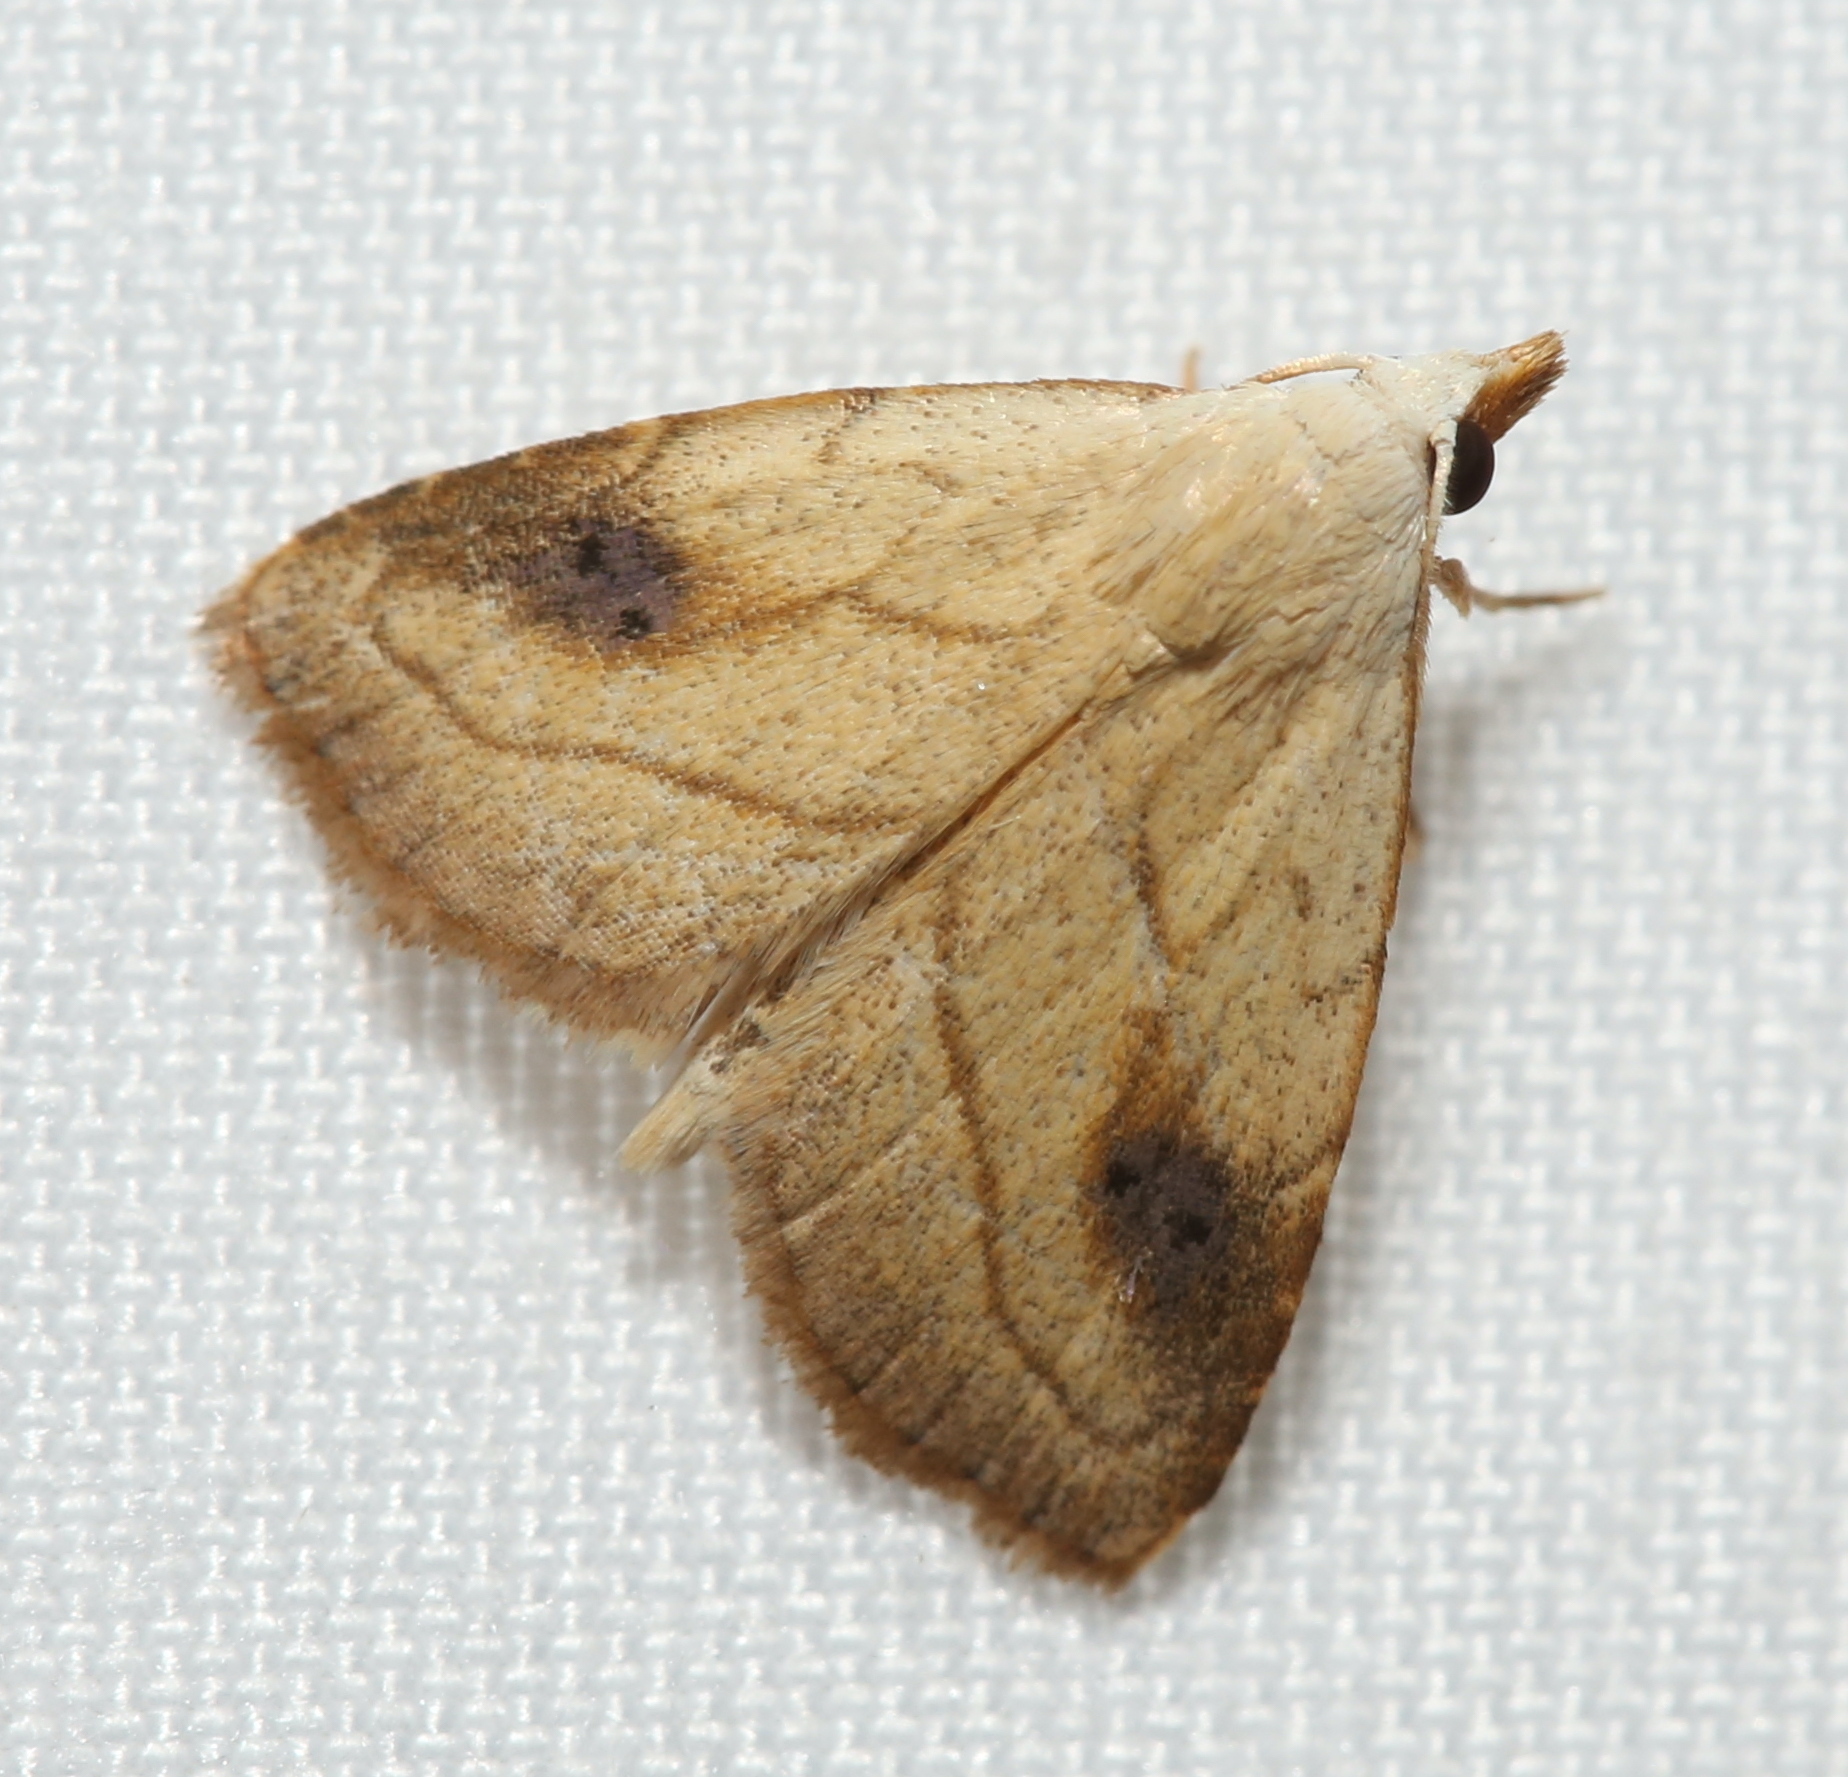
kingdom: Animalia
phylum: Arthropoda
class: Insecta
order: Lepidoptera
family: Erebidae
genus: Rivula
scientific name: Rivula propinqualis
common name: Spotted grass moth
